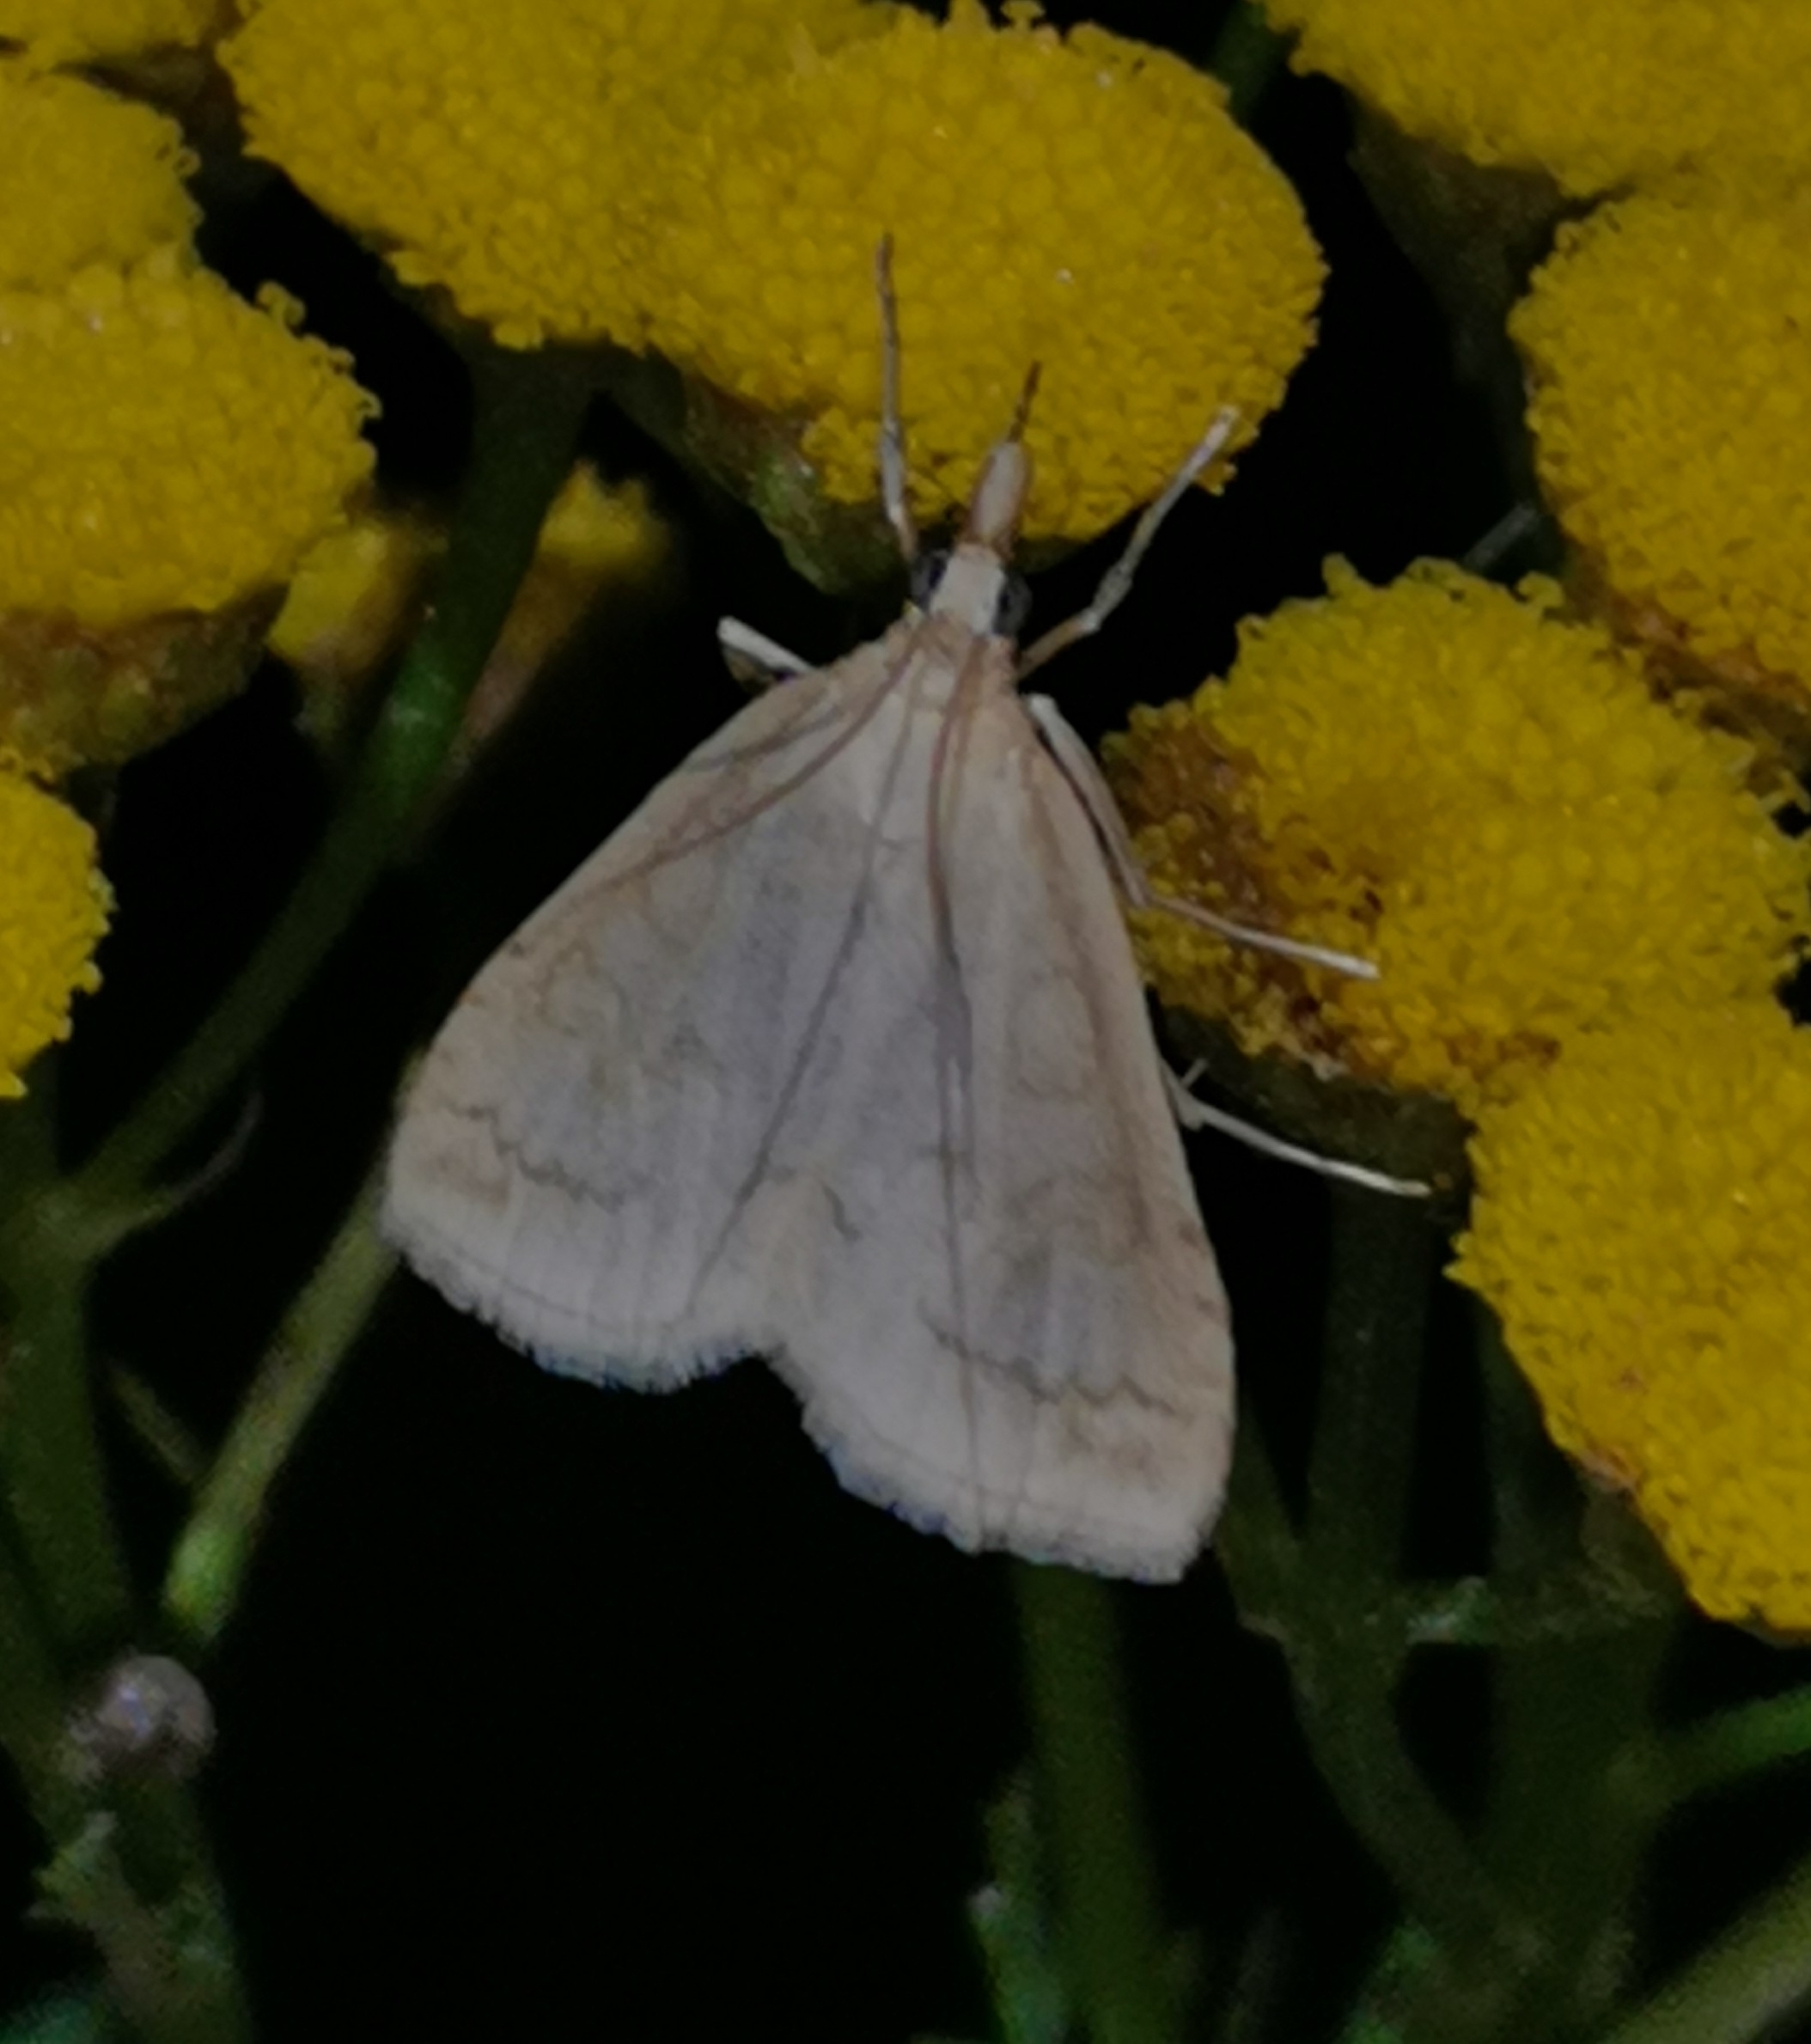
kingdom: Animalia
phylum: Arthropoda
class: Insecta
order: Lepidoptera
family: Crambidae
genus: Udea
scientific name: Udea lutealis
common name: Pale straw pearl
